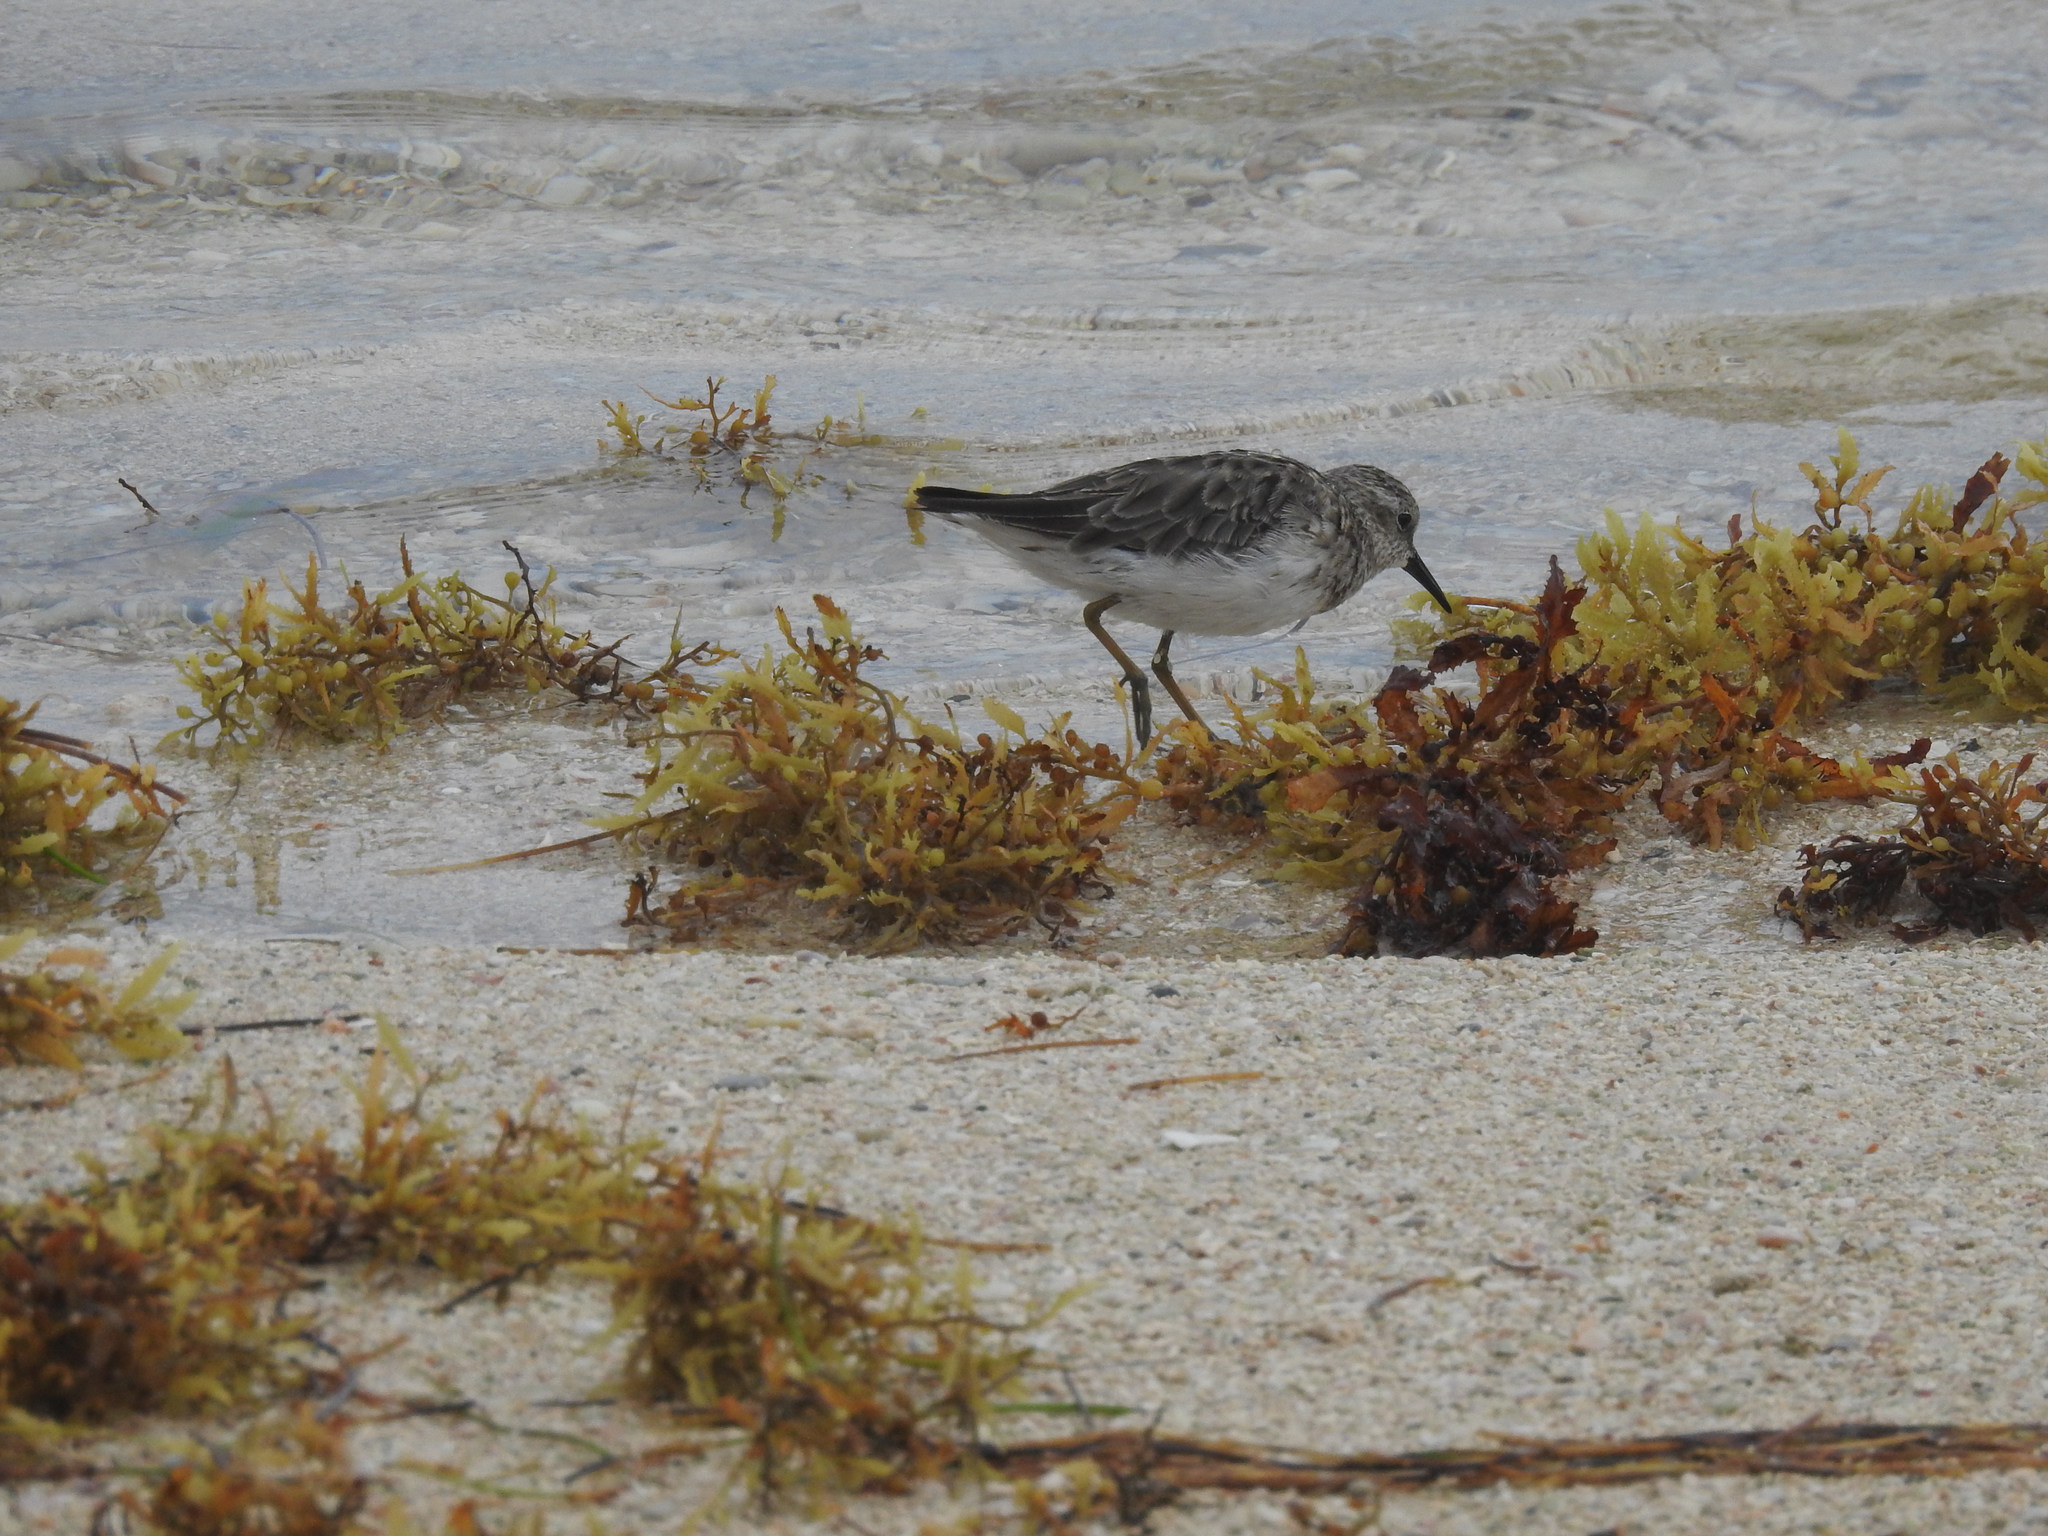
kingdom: Animalia
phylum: Chordata
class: Aves
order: Charadriiformes
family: Scolopacidae
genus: Calidris
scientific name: Calidris minutilla
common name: Least sandpiper
